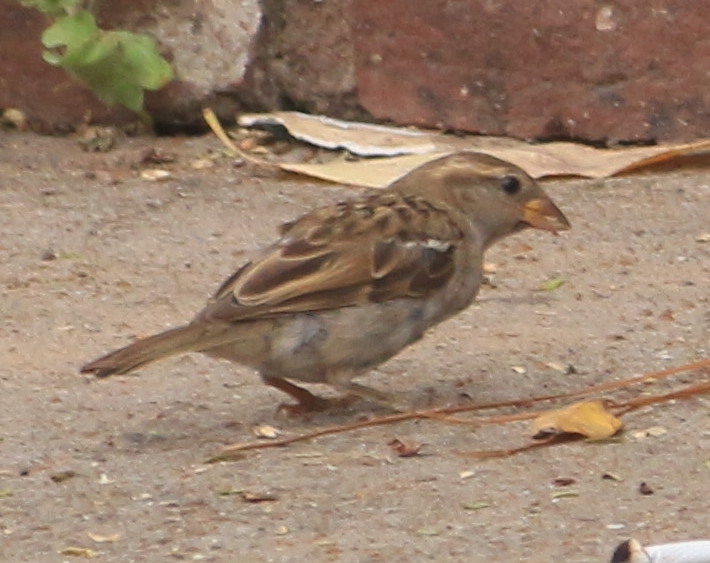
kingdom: Animalia
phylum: Chordata
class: Aves
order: Passeriformes
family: Passeridae
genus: Passer
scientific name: Passer domesticus
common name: House sparrow
